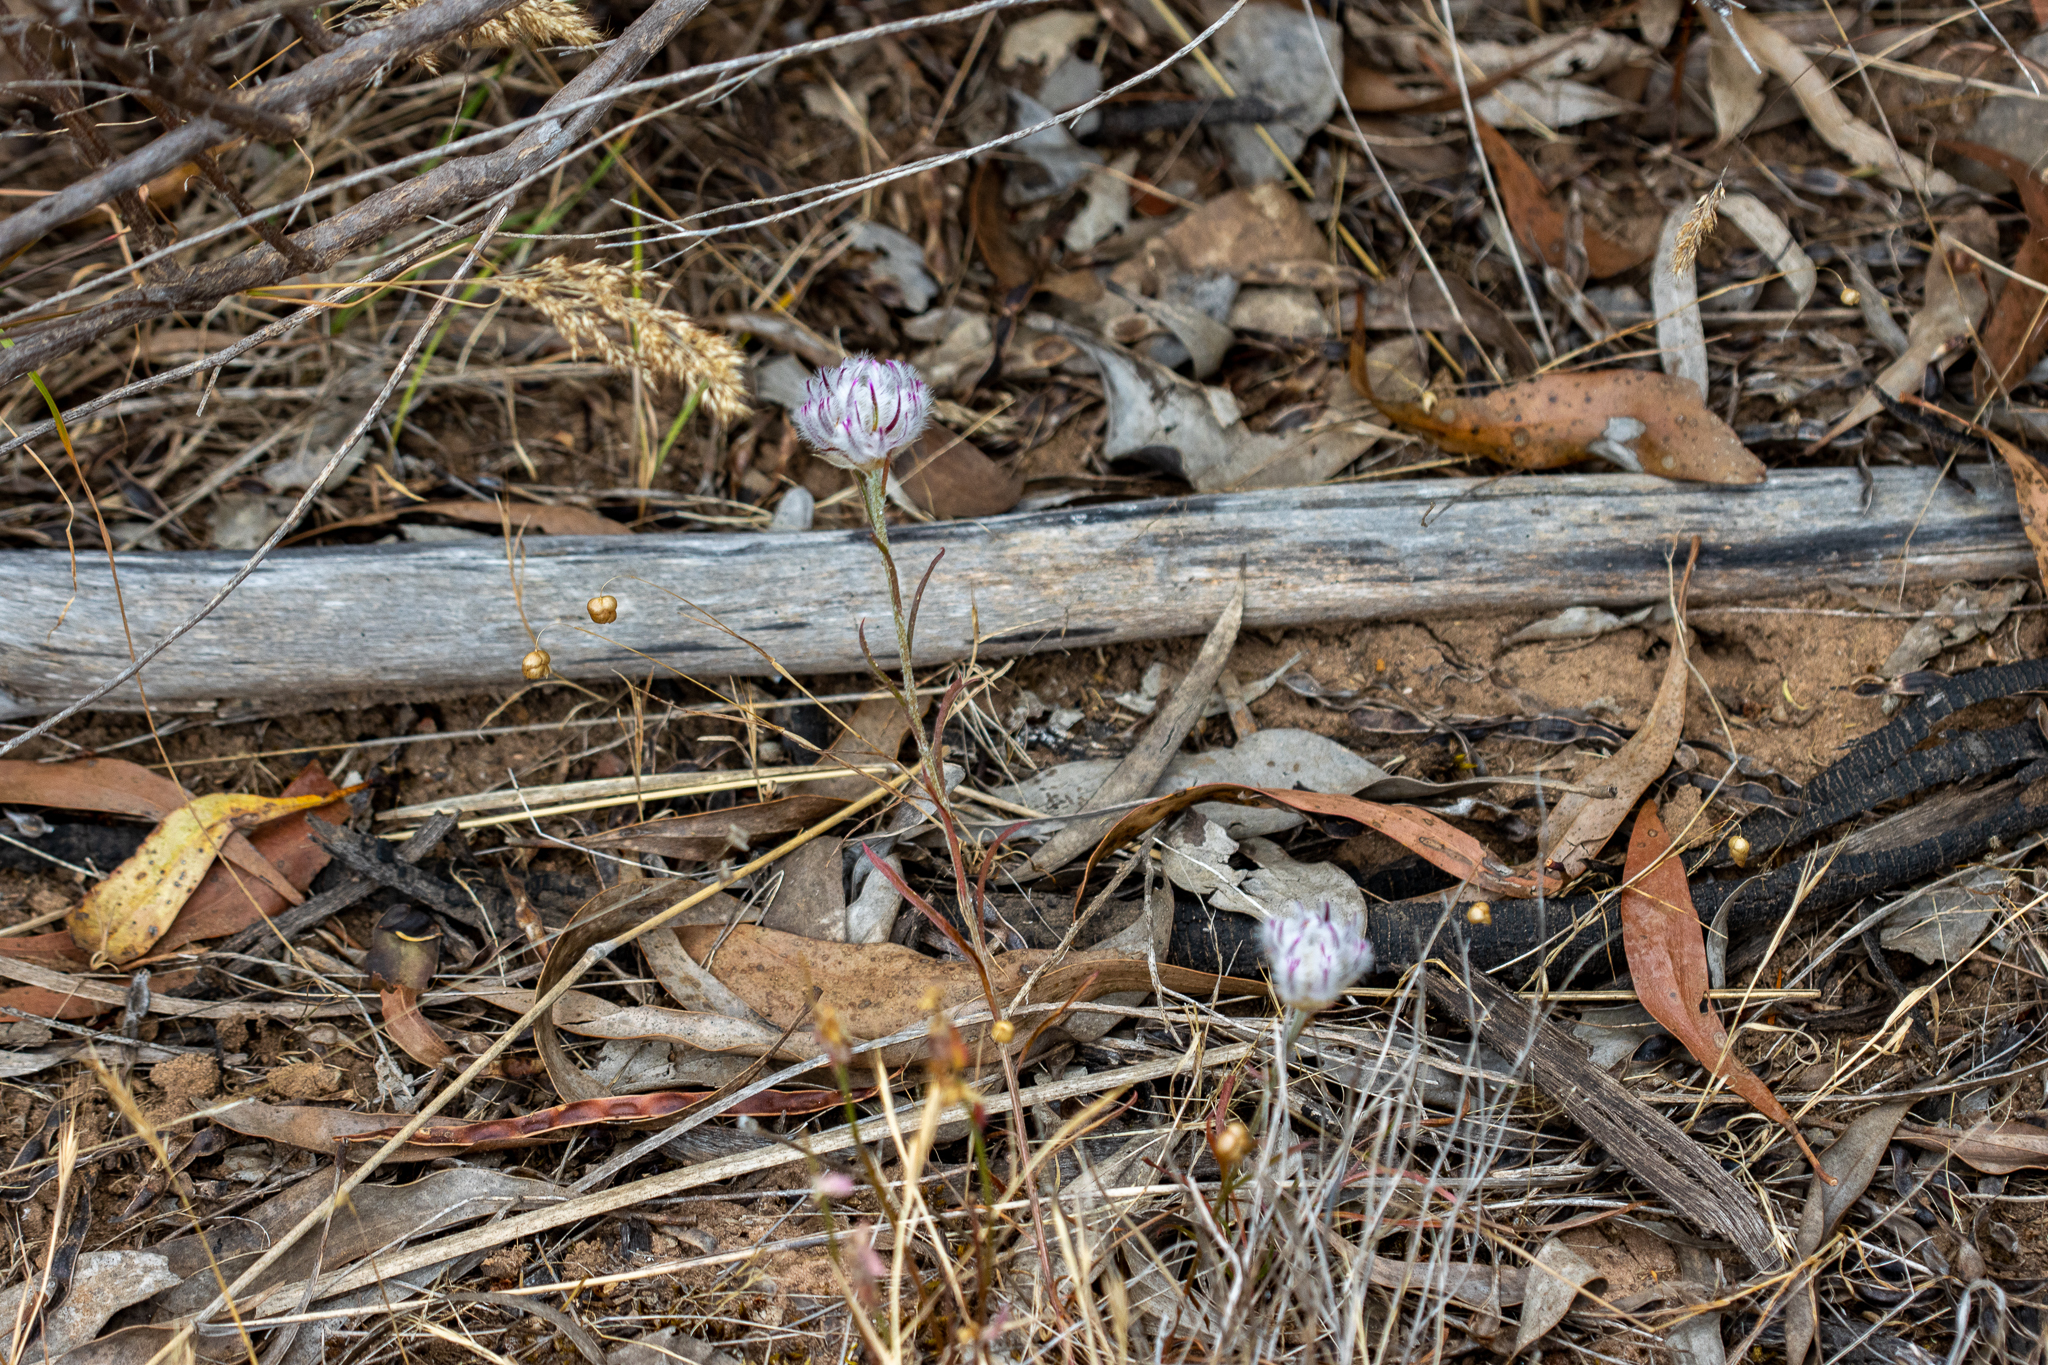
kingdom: Plantae
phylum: Tracheophyta
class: Magnoliopsida
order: Caryophyllales
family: Amaranthaceae
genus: Ptilotus
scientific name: Ptilotus erubescens
